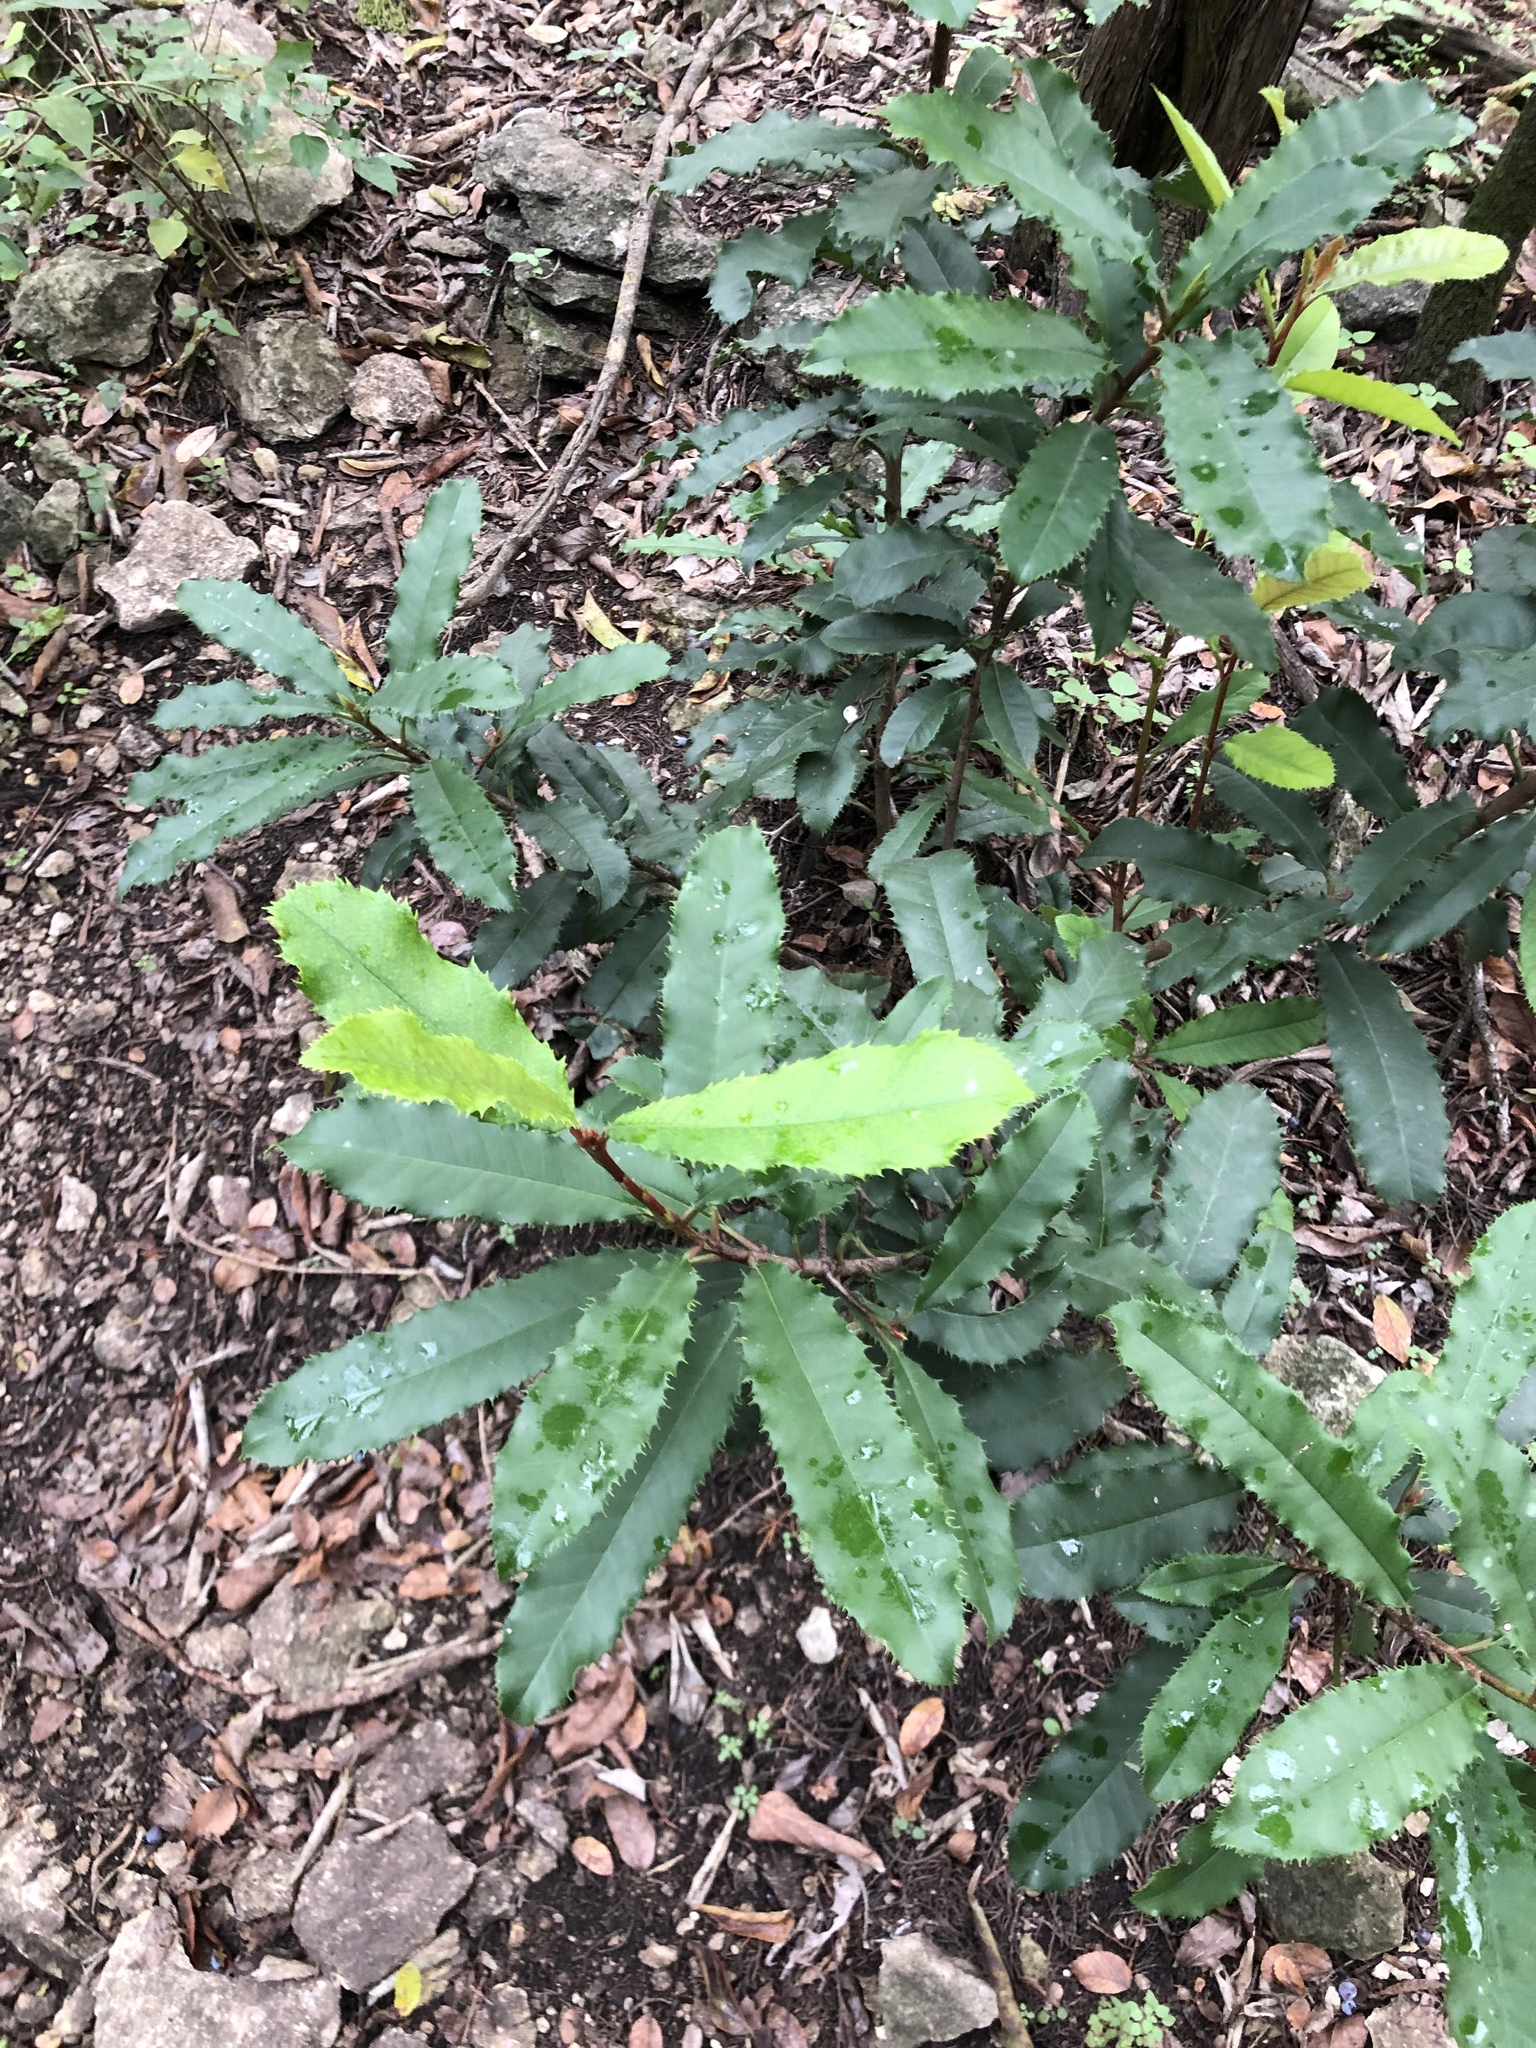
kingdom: Plantae
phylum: Tracheophyta
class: Magnoliopsida
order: Rosales
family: Rosaceae
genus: Photinia
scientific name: Photinia serratifolia
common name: Taiwanese photinia
